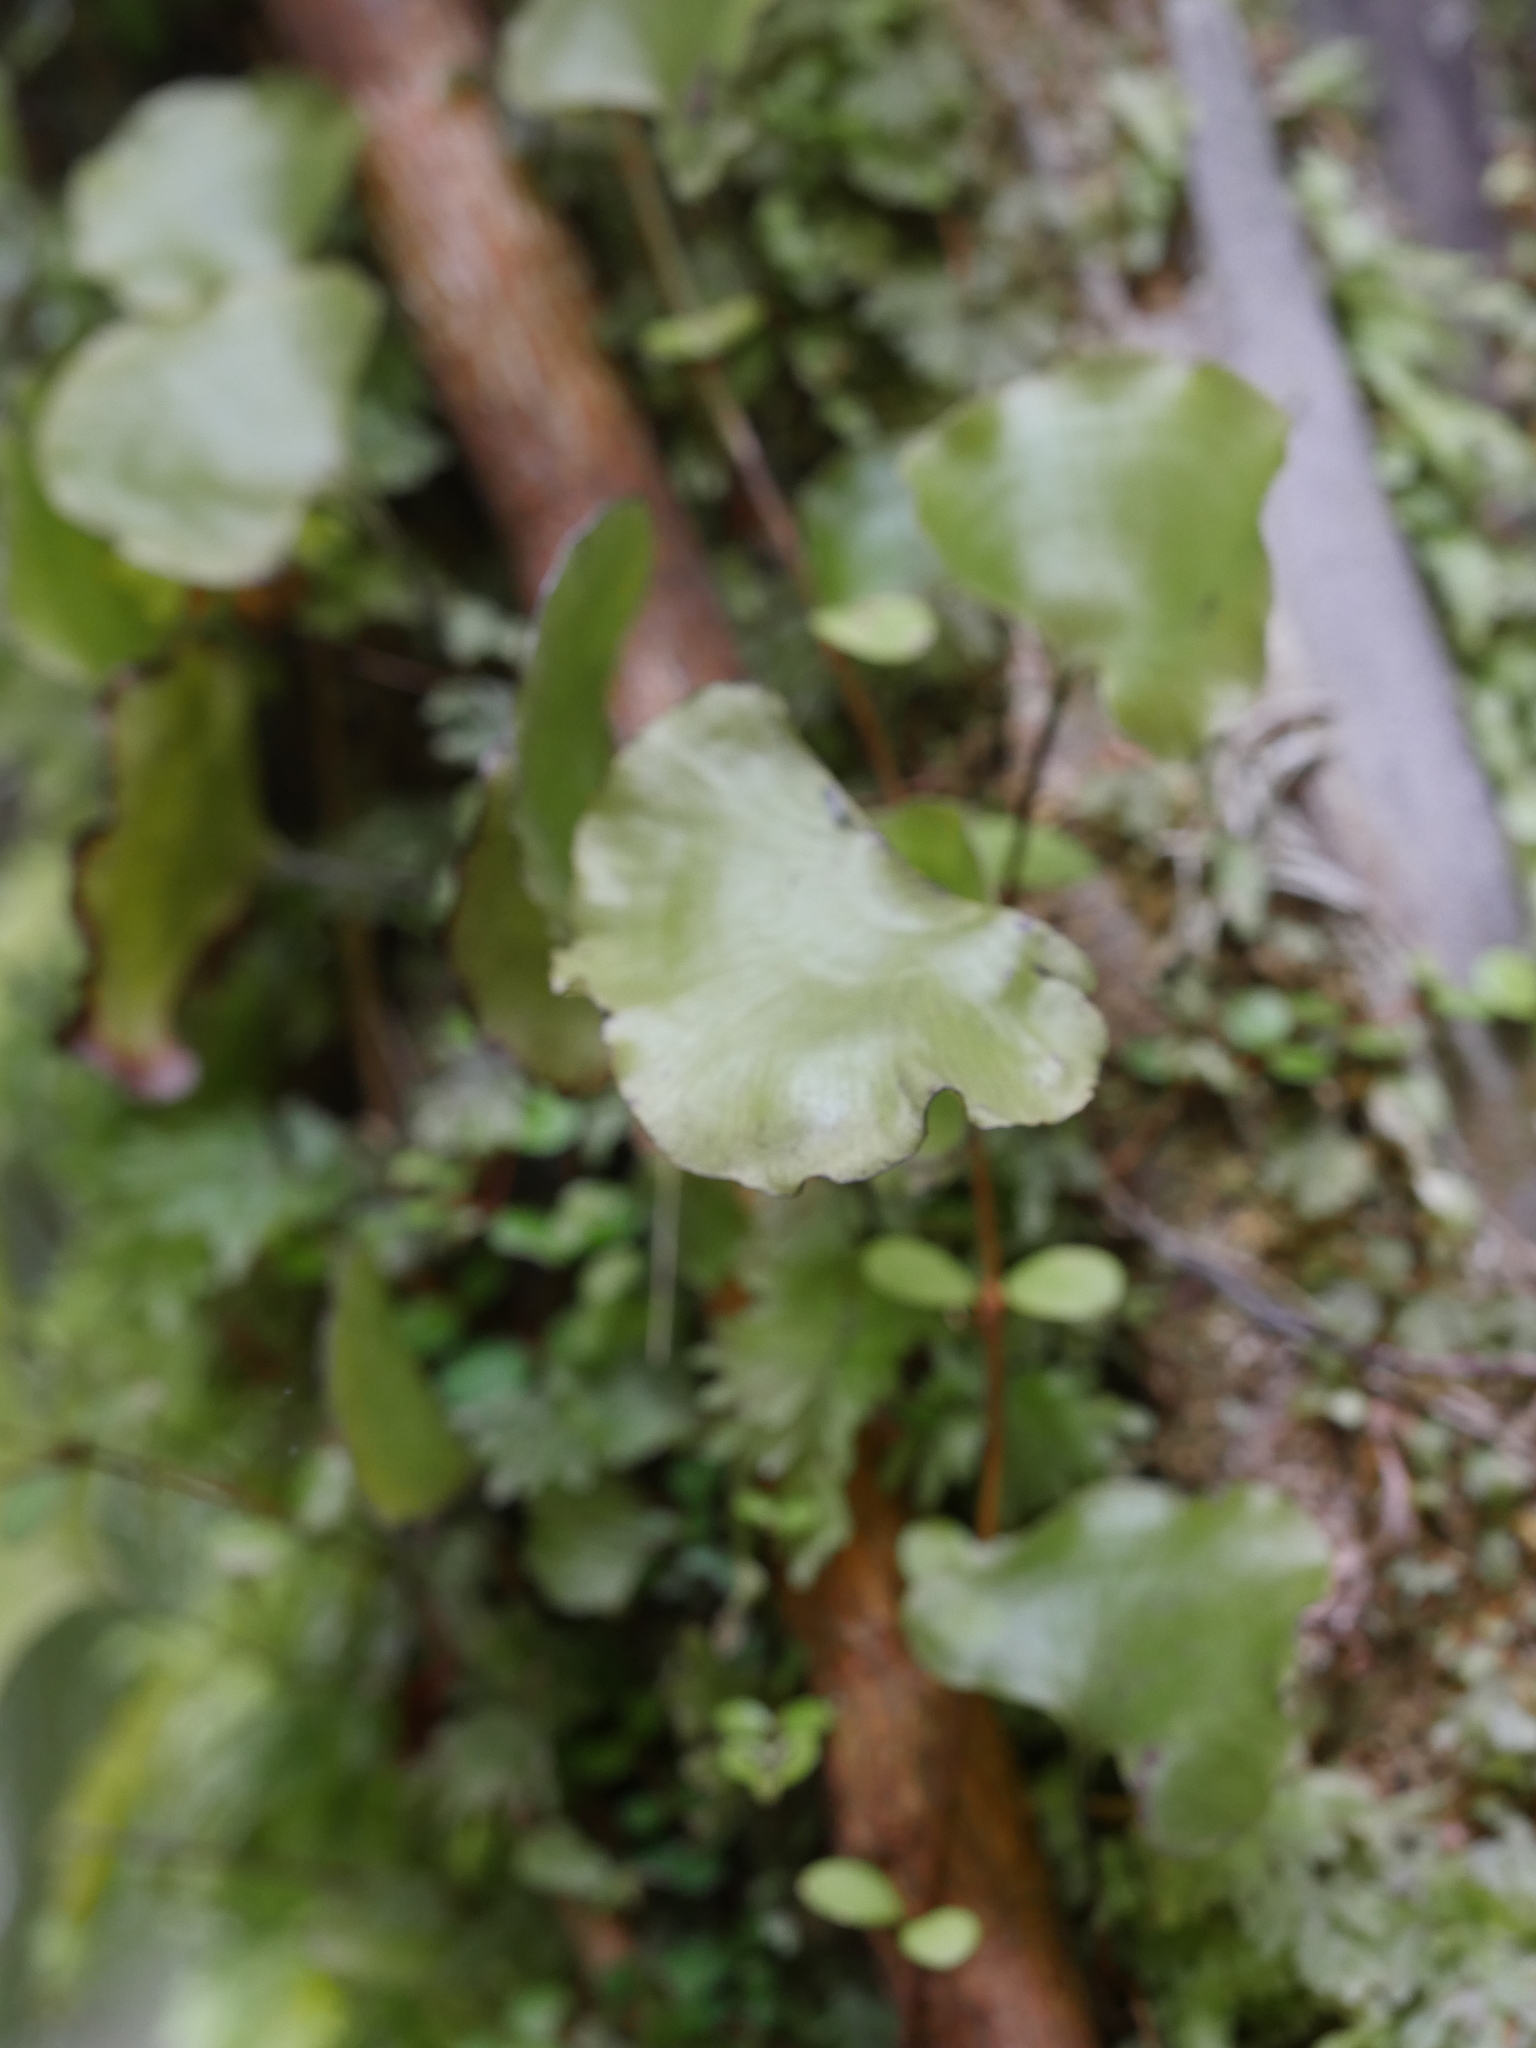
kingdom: Plantae
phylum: Tracheophyta
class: Polypodiopsida
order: Hymenophyllales
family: Hymenophyllaceae
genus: Hymenophyllum
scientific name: Hymenophyllum nephrophyllum
